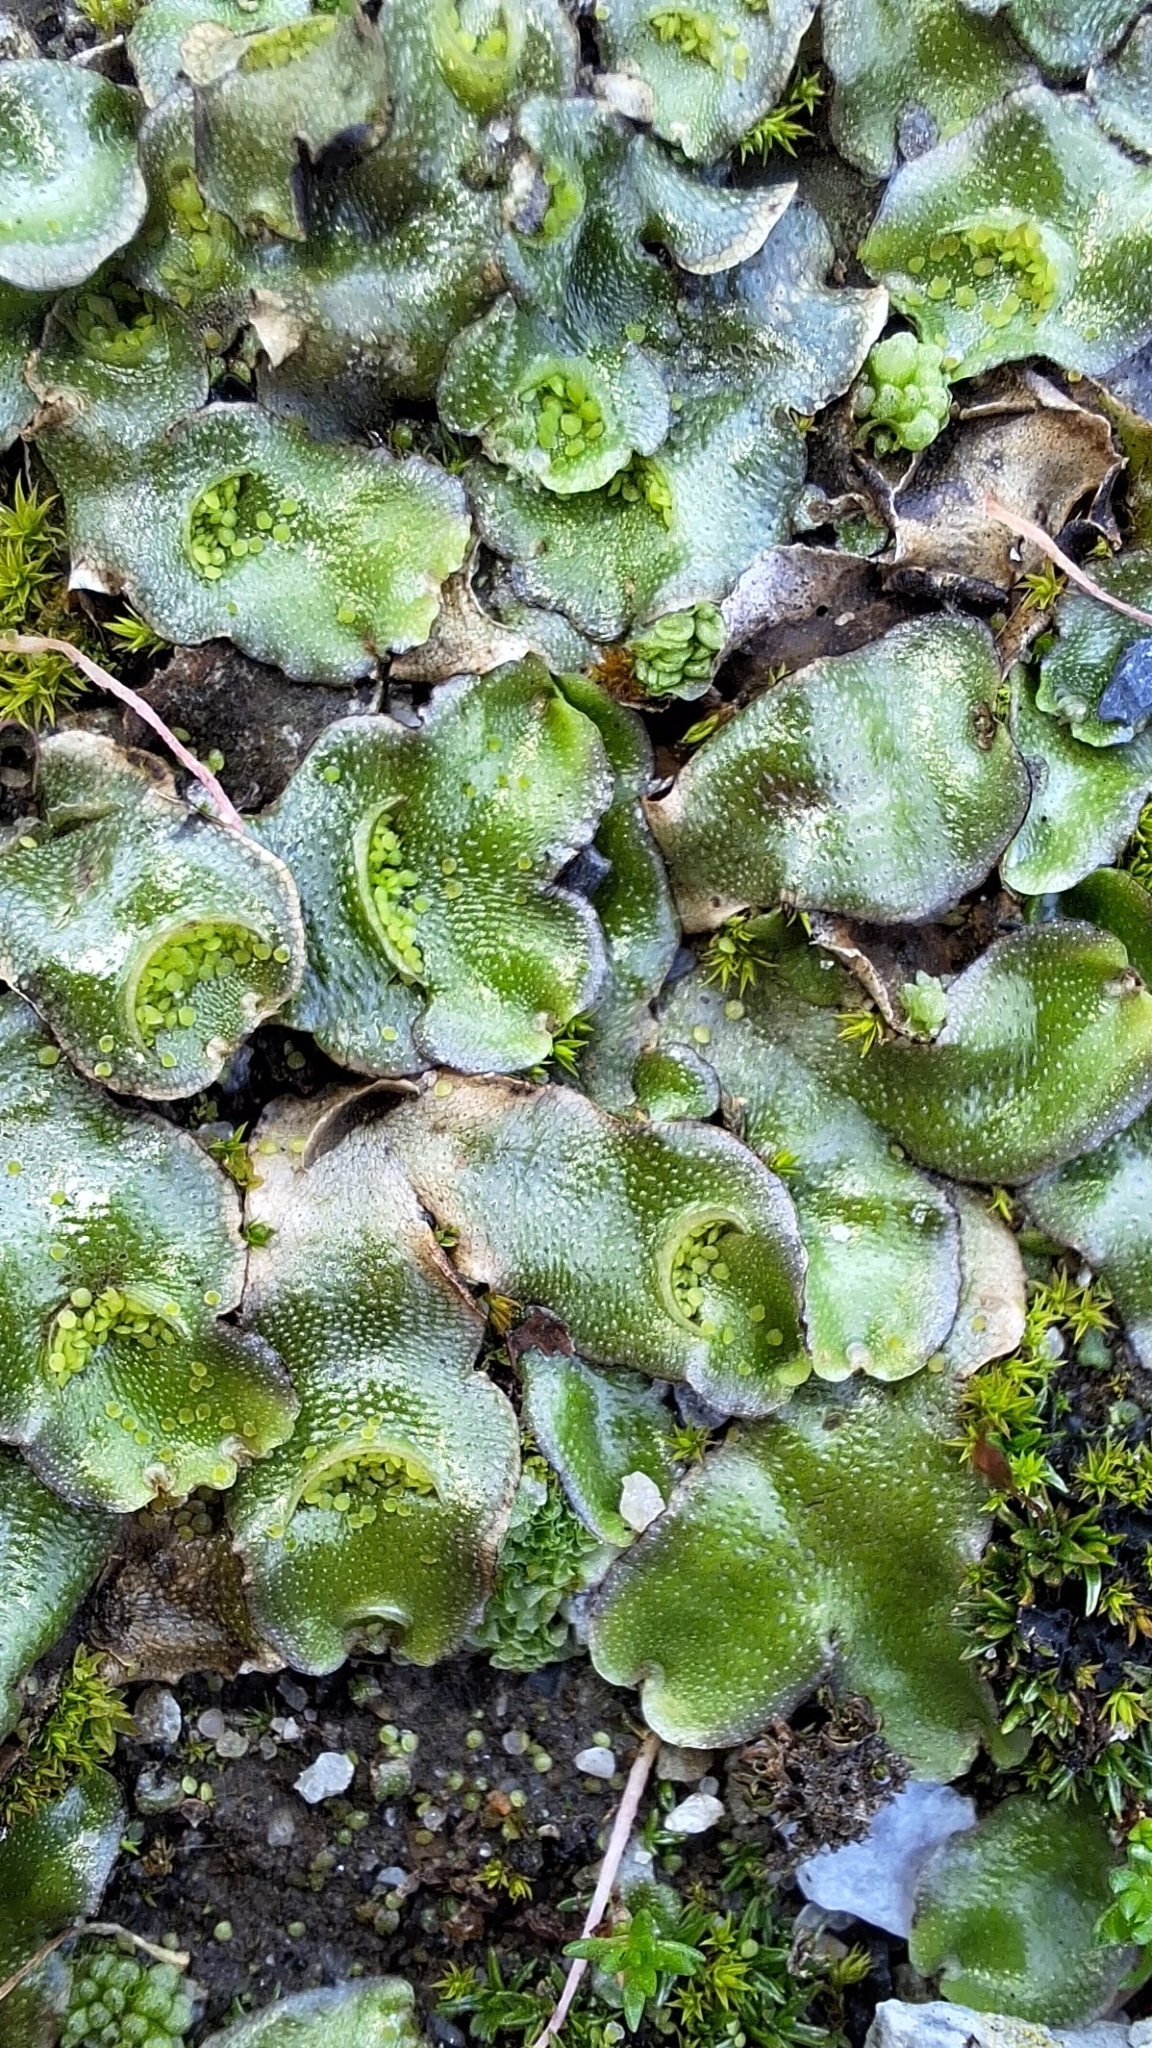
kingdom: Plantae
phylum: Marchantiophyta
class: Marchantiopsida
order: Lunulariales
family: Lunulariaceae
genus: Lunularia
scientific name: Lunularia cruciata
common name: Crescent-cup liverwort
